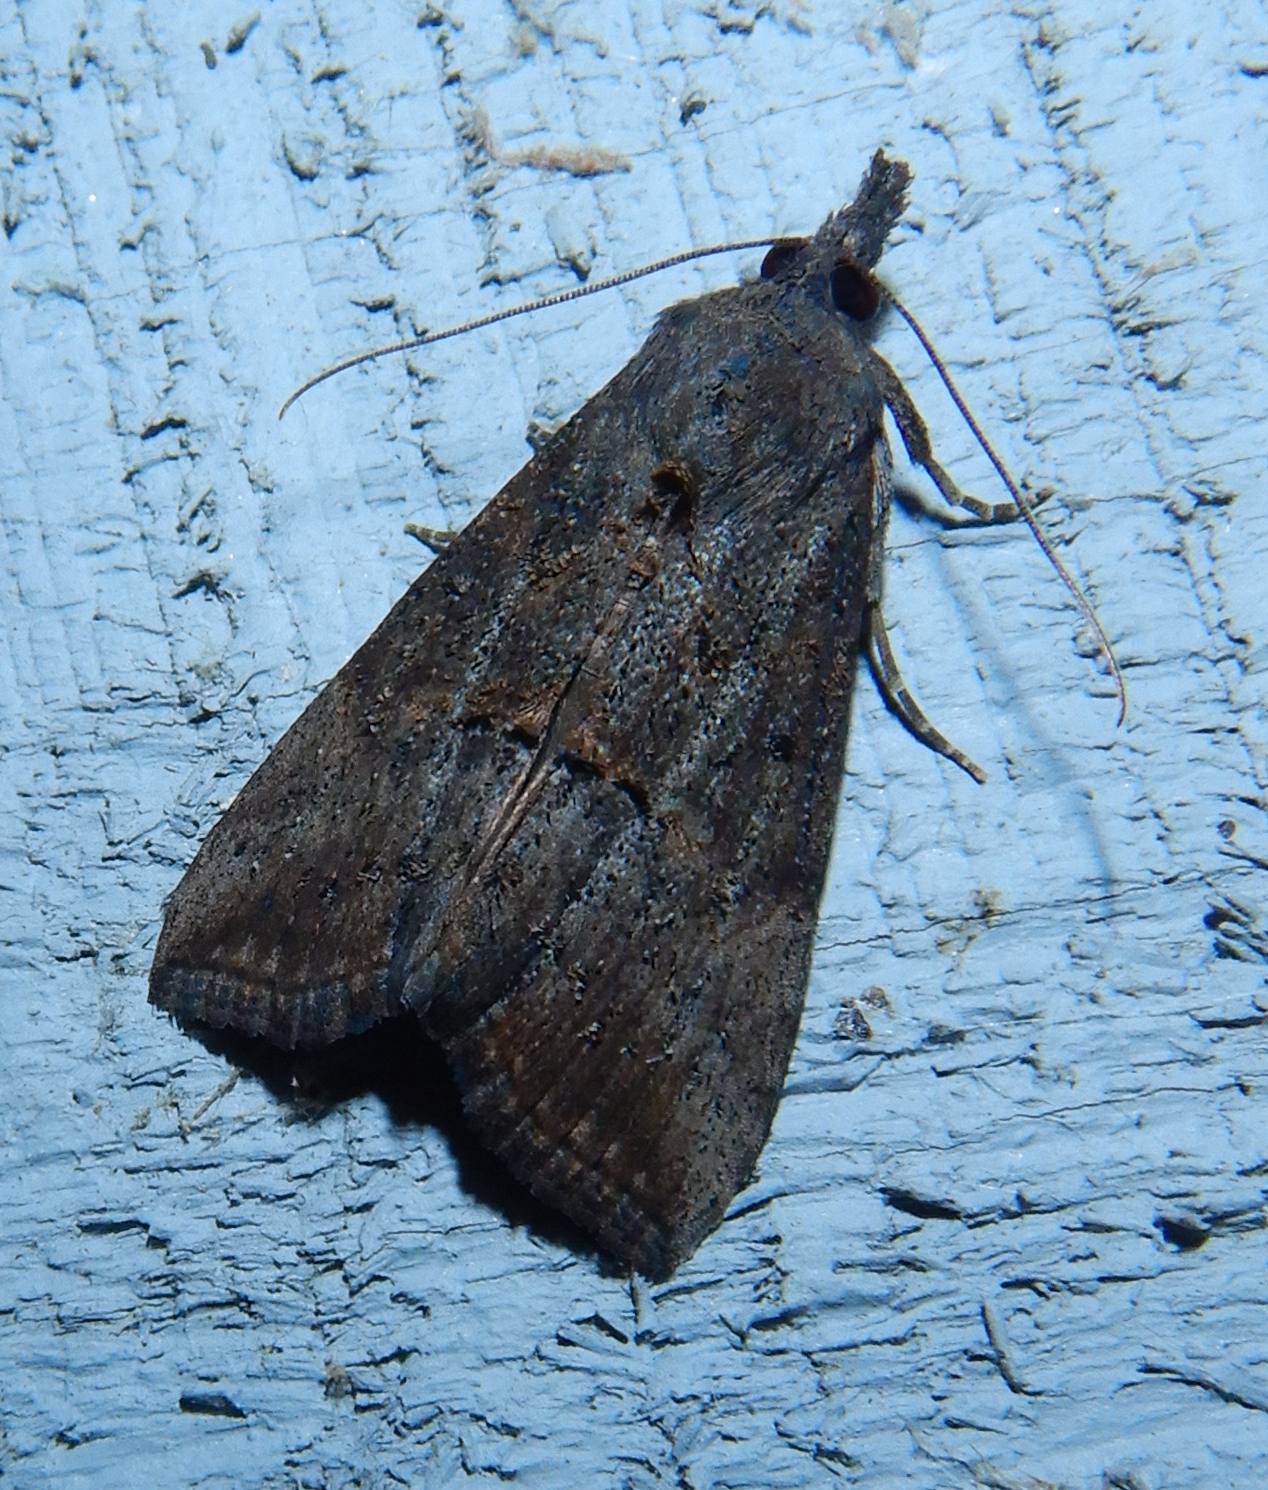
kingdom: Animalia
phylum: Arthropoda
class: Insecta
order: Lepidoptera
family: Erebidae
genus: Hypena
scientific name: Hypena scabra
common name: Green cloverworm
